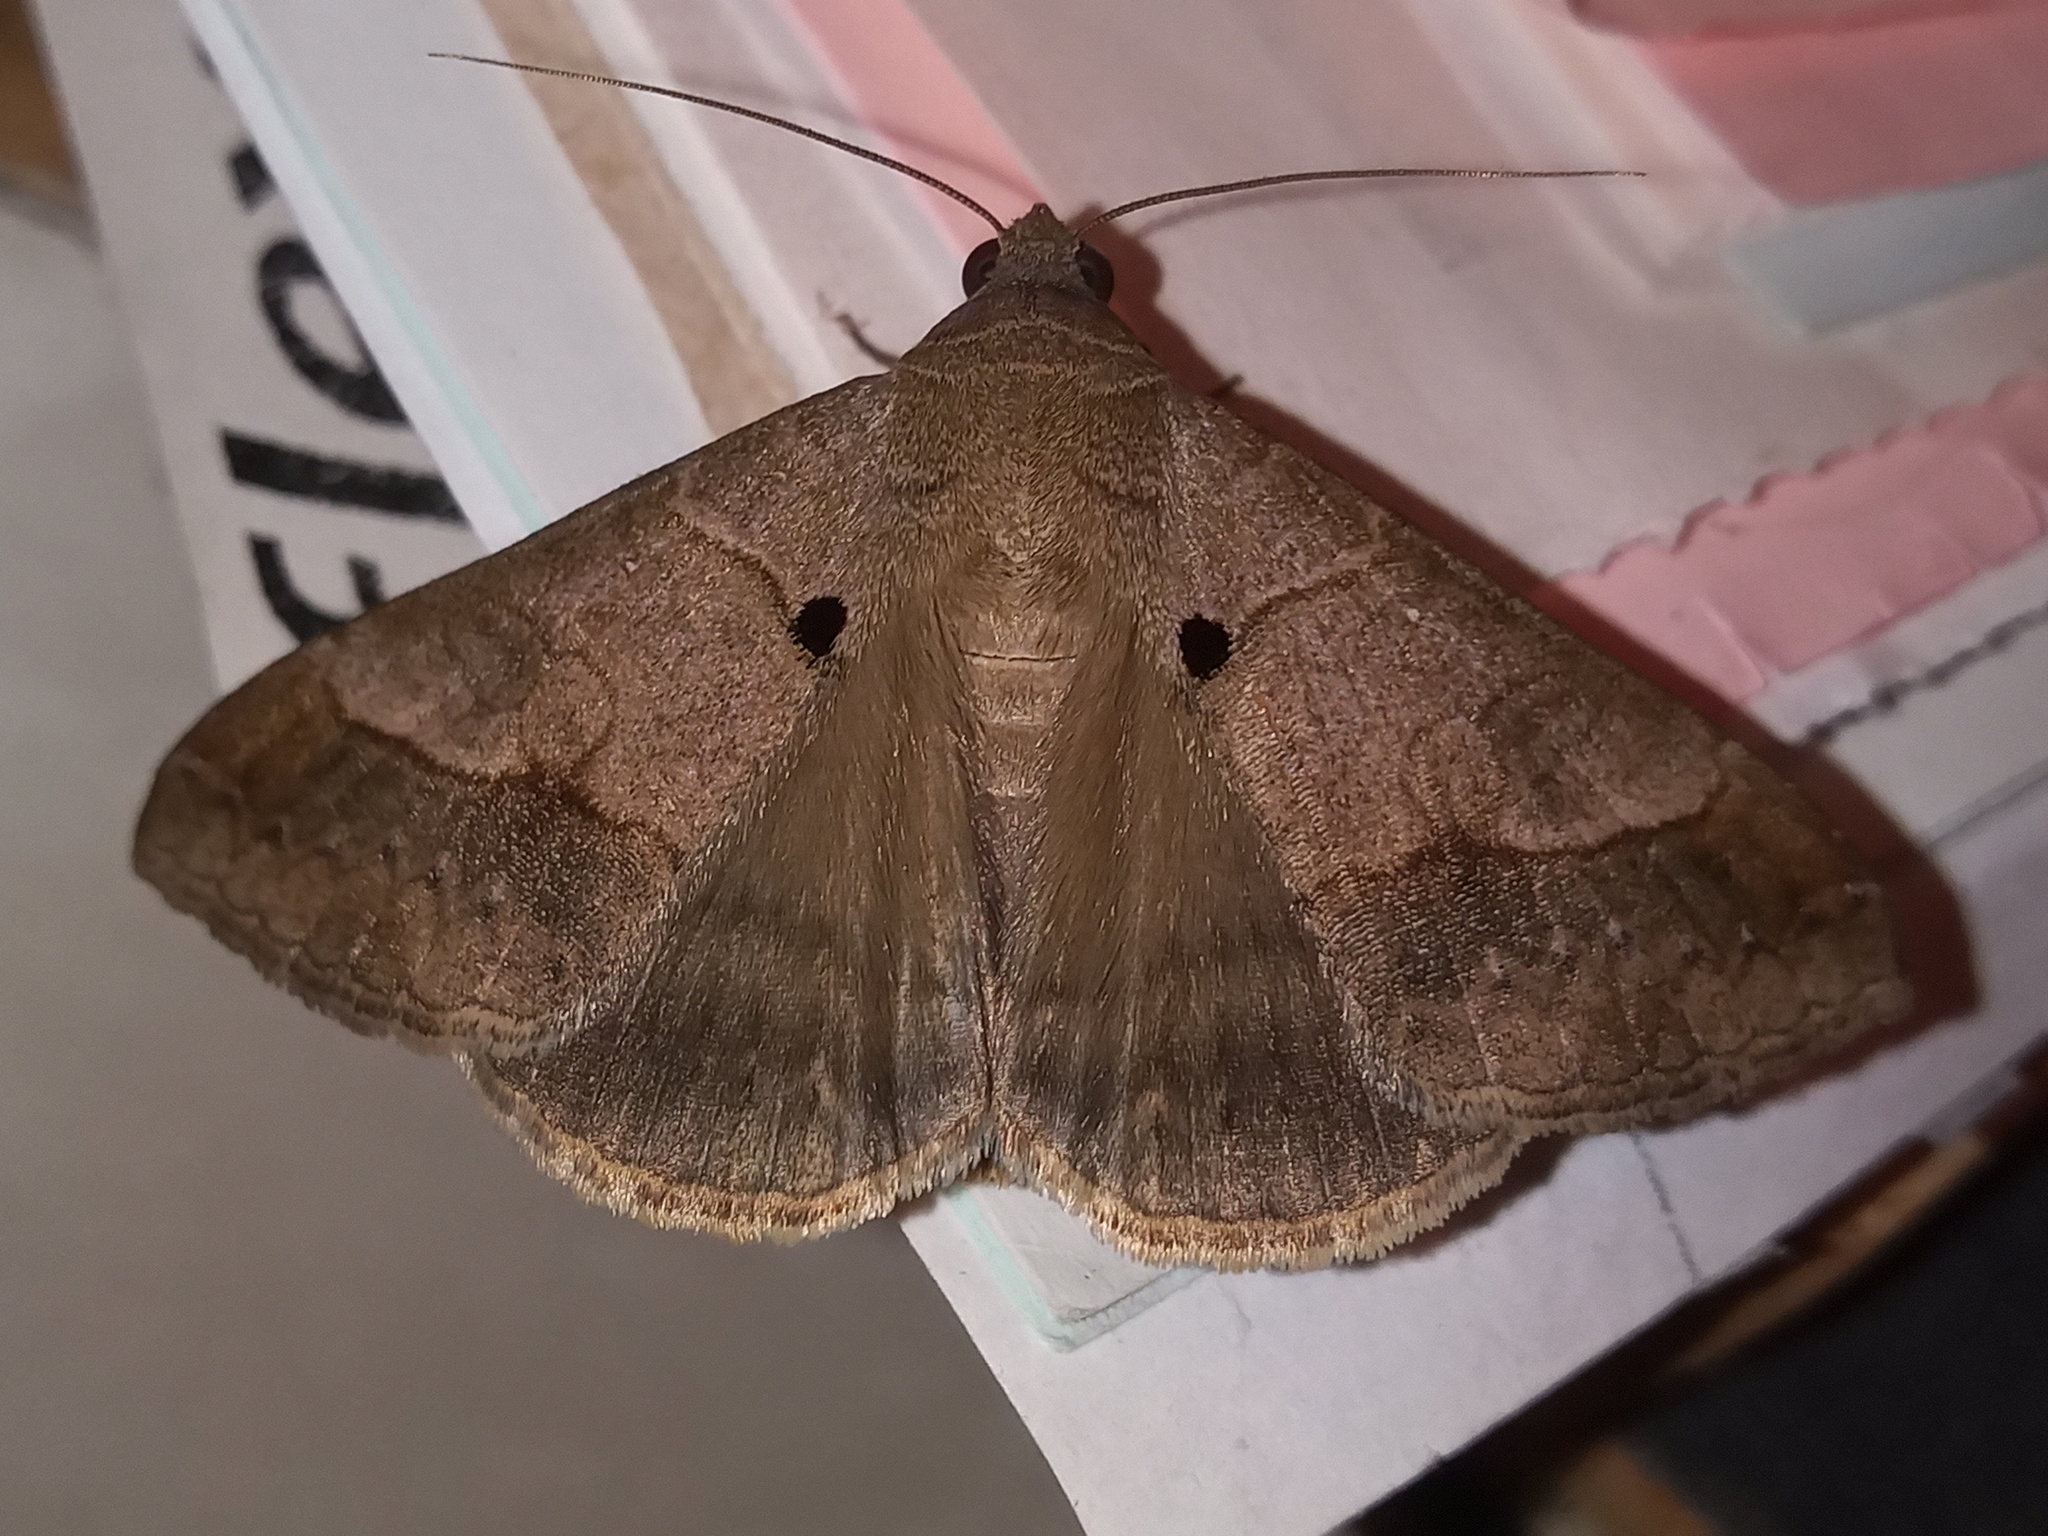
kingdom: Animalia
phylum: Arthropoda
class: Insecta
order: Lepidoptera
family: Erebidae
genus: Mocis
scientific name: Mocis latipes
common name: Striped grass looper
